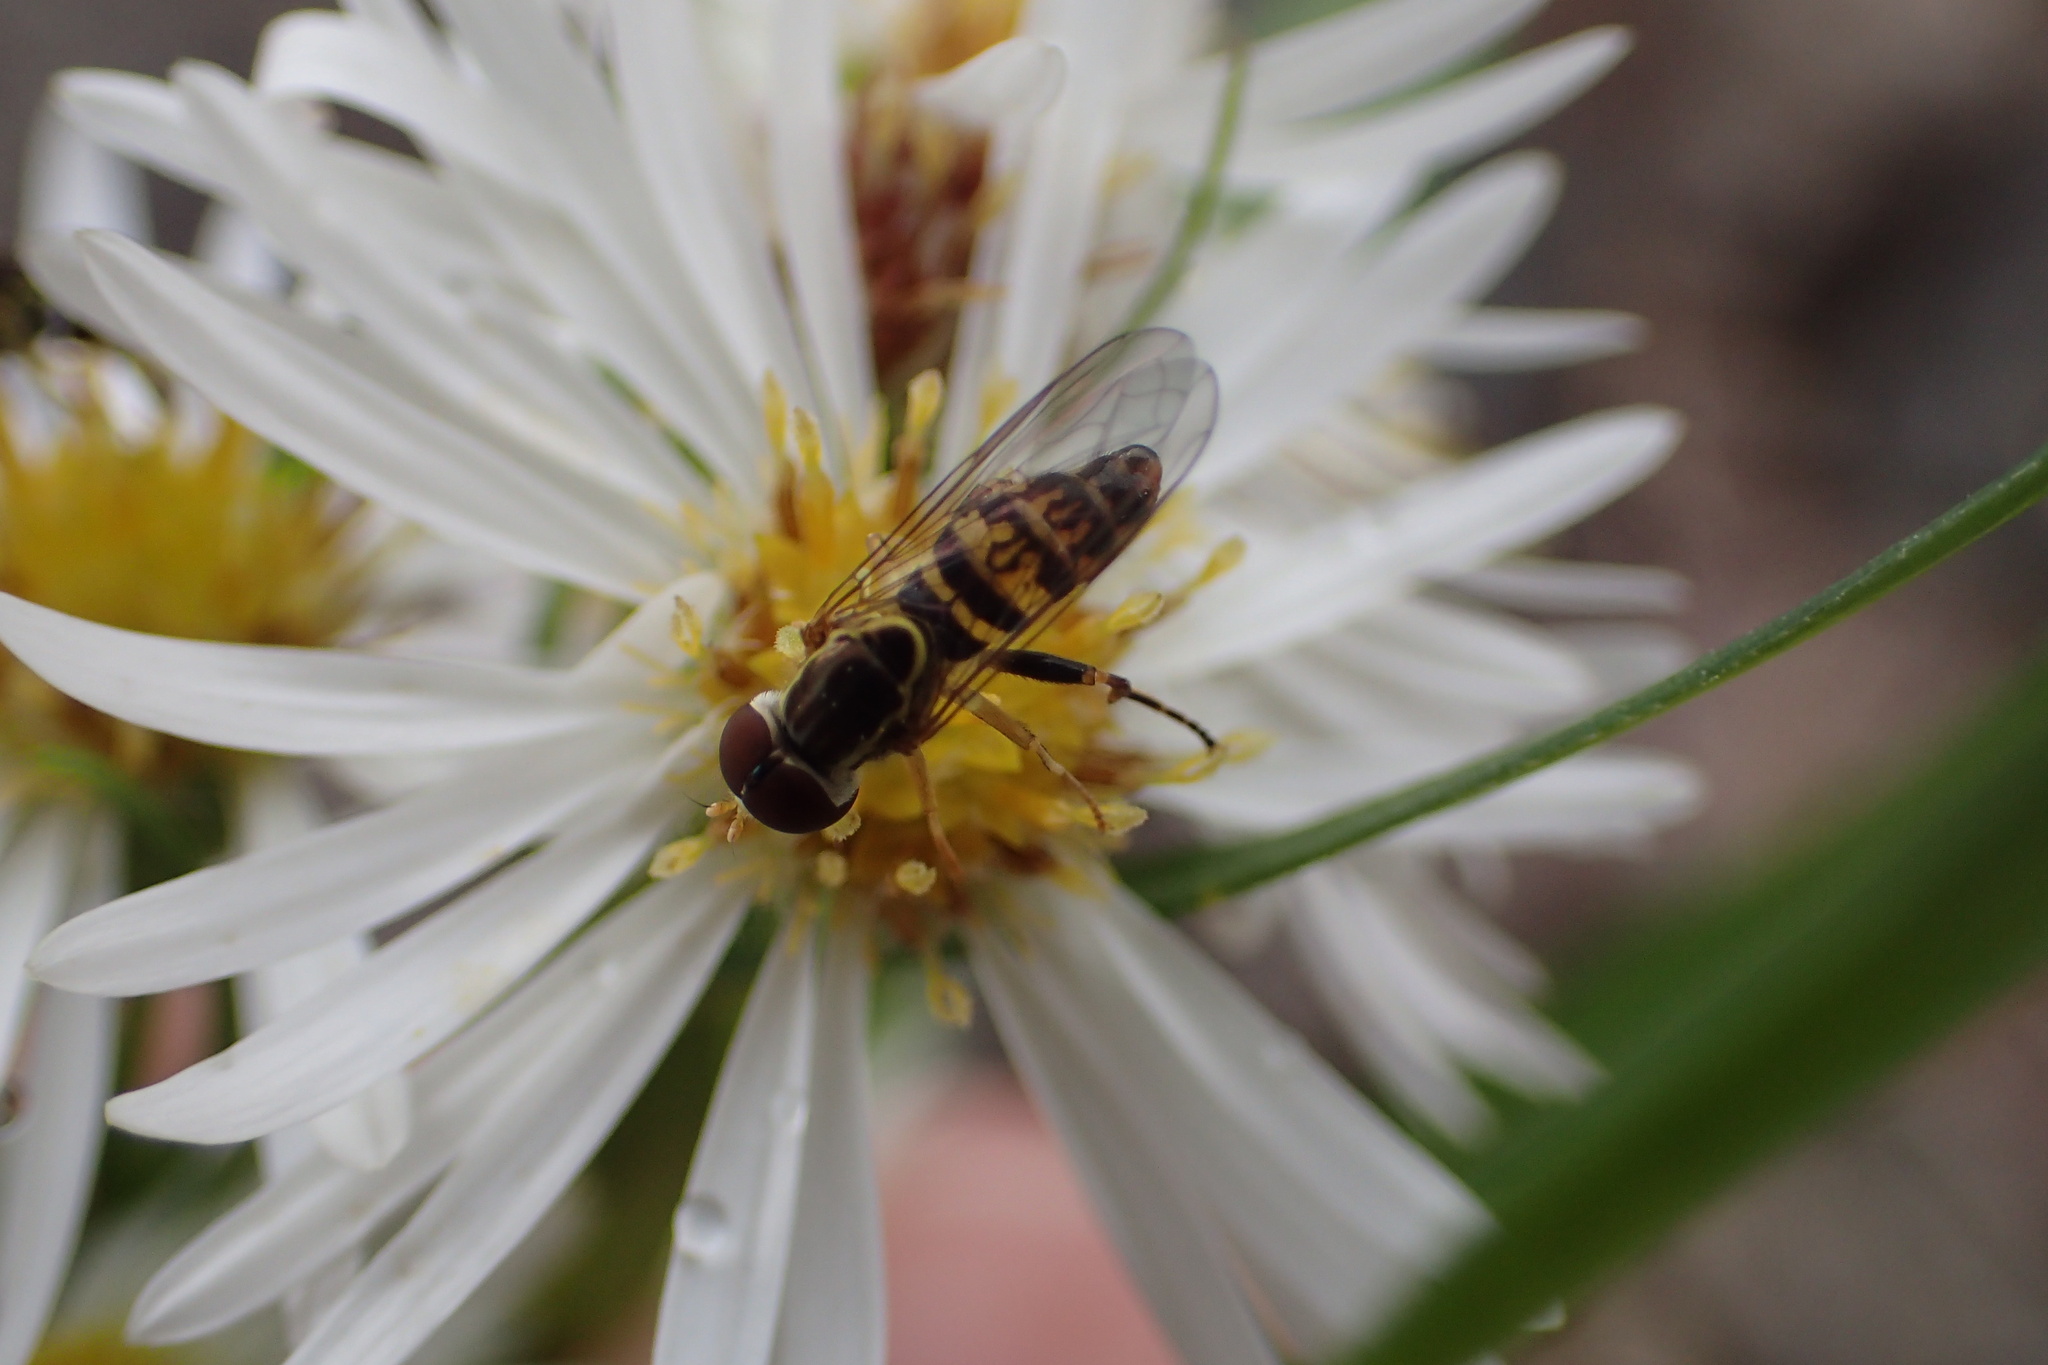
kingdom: Animalia
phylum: Arthropoda
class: Insecta
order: Diptera
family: Syrphidae
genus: Toxomerus
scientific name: Toxomerus geminatus
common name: Eastern calligrapher
